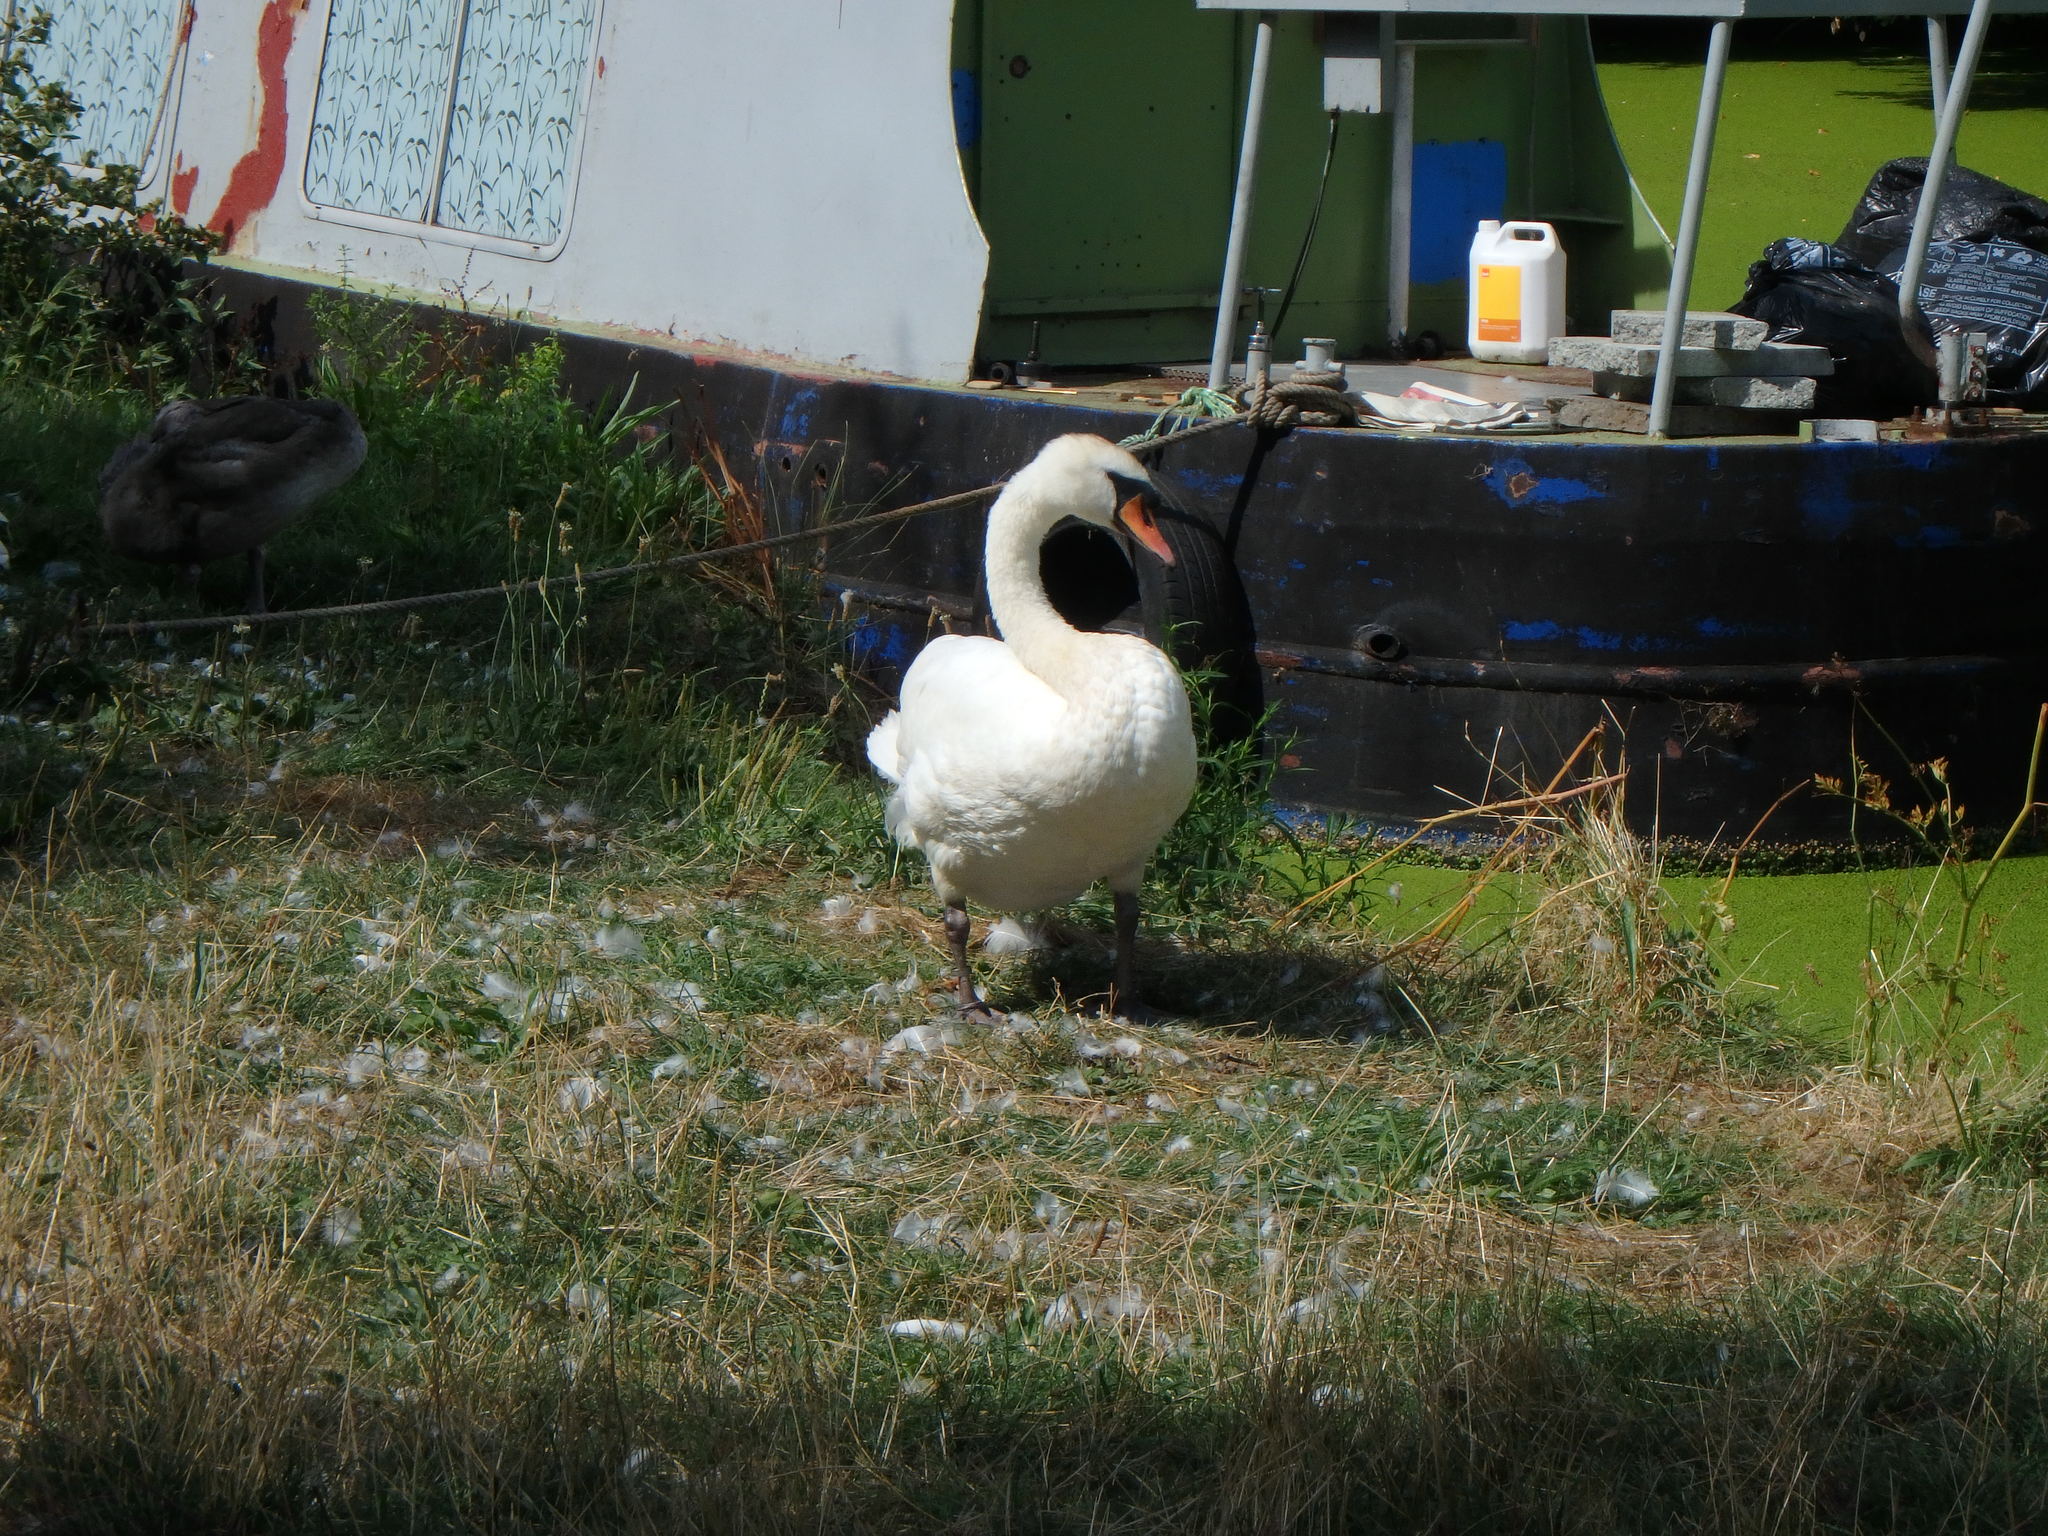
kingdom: Animalia
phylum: Chordata
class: Aves
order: Anseriformes
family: Anatidae
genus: Cygnus
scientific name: Cygnus olor
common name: Mute swan
